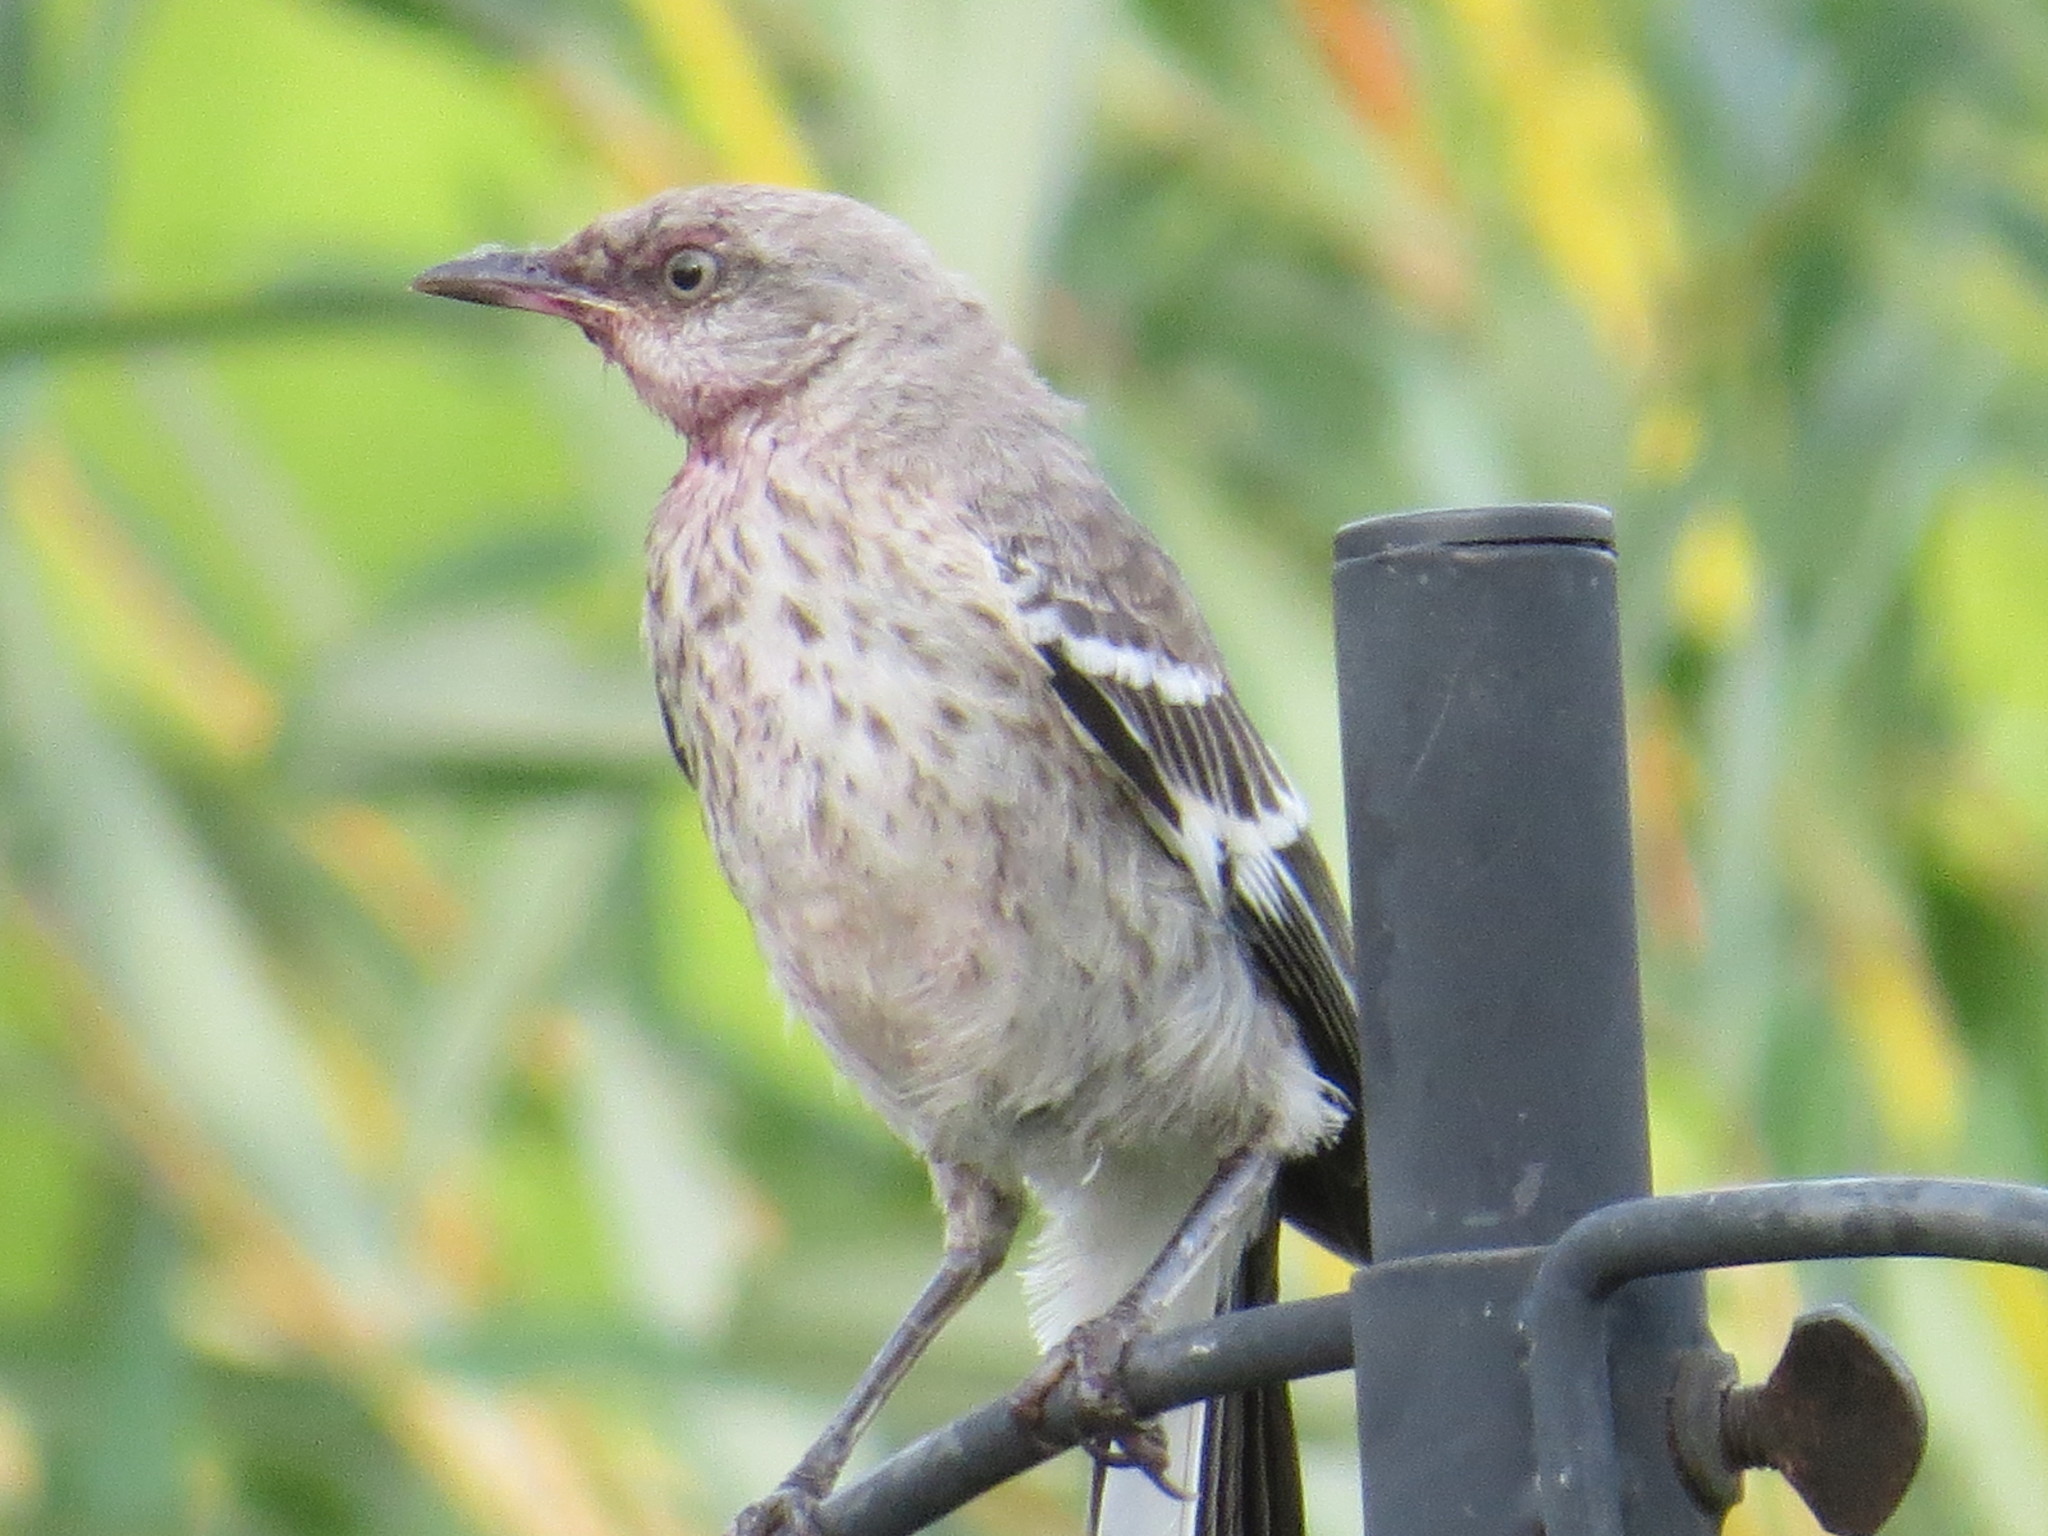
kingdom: Animalia
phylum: Chordata
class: Aves
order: Passeriformes
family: Mimidae
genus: Mimus
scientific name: Mimus polyglottos
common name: Northern mockingbird
